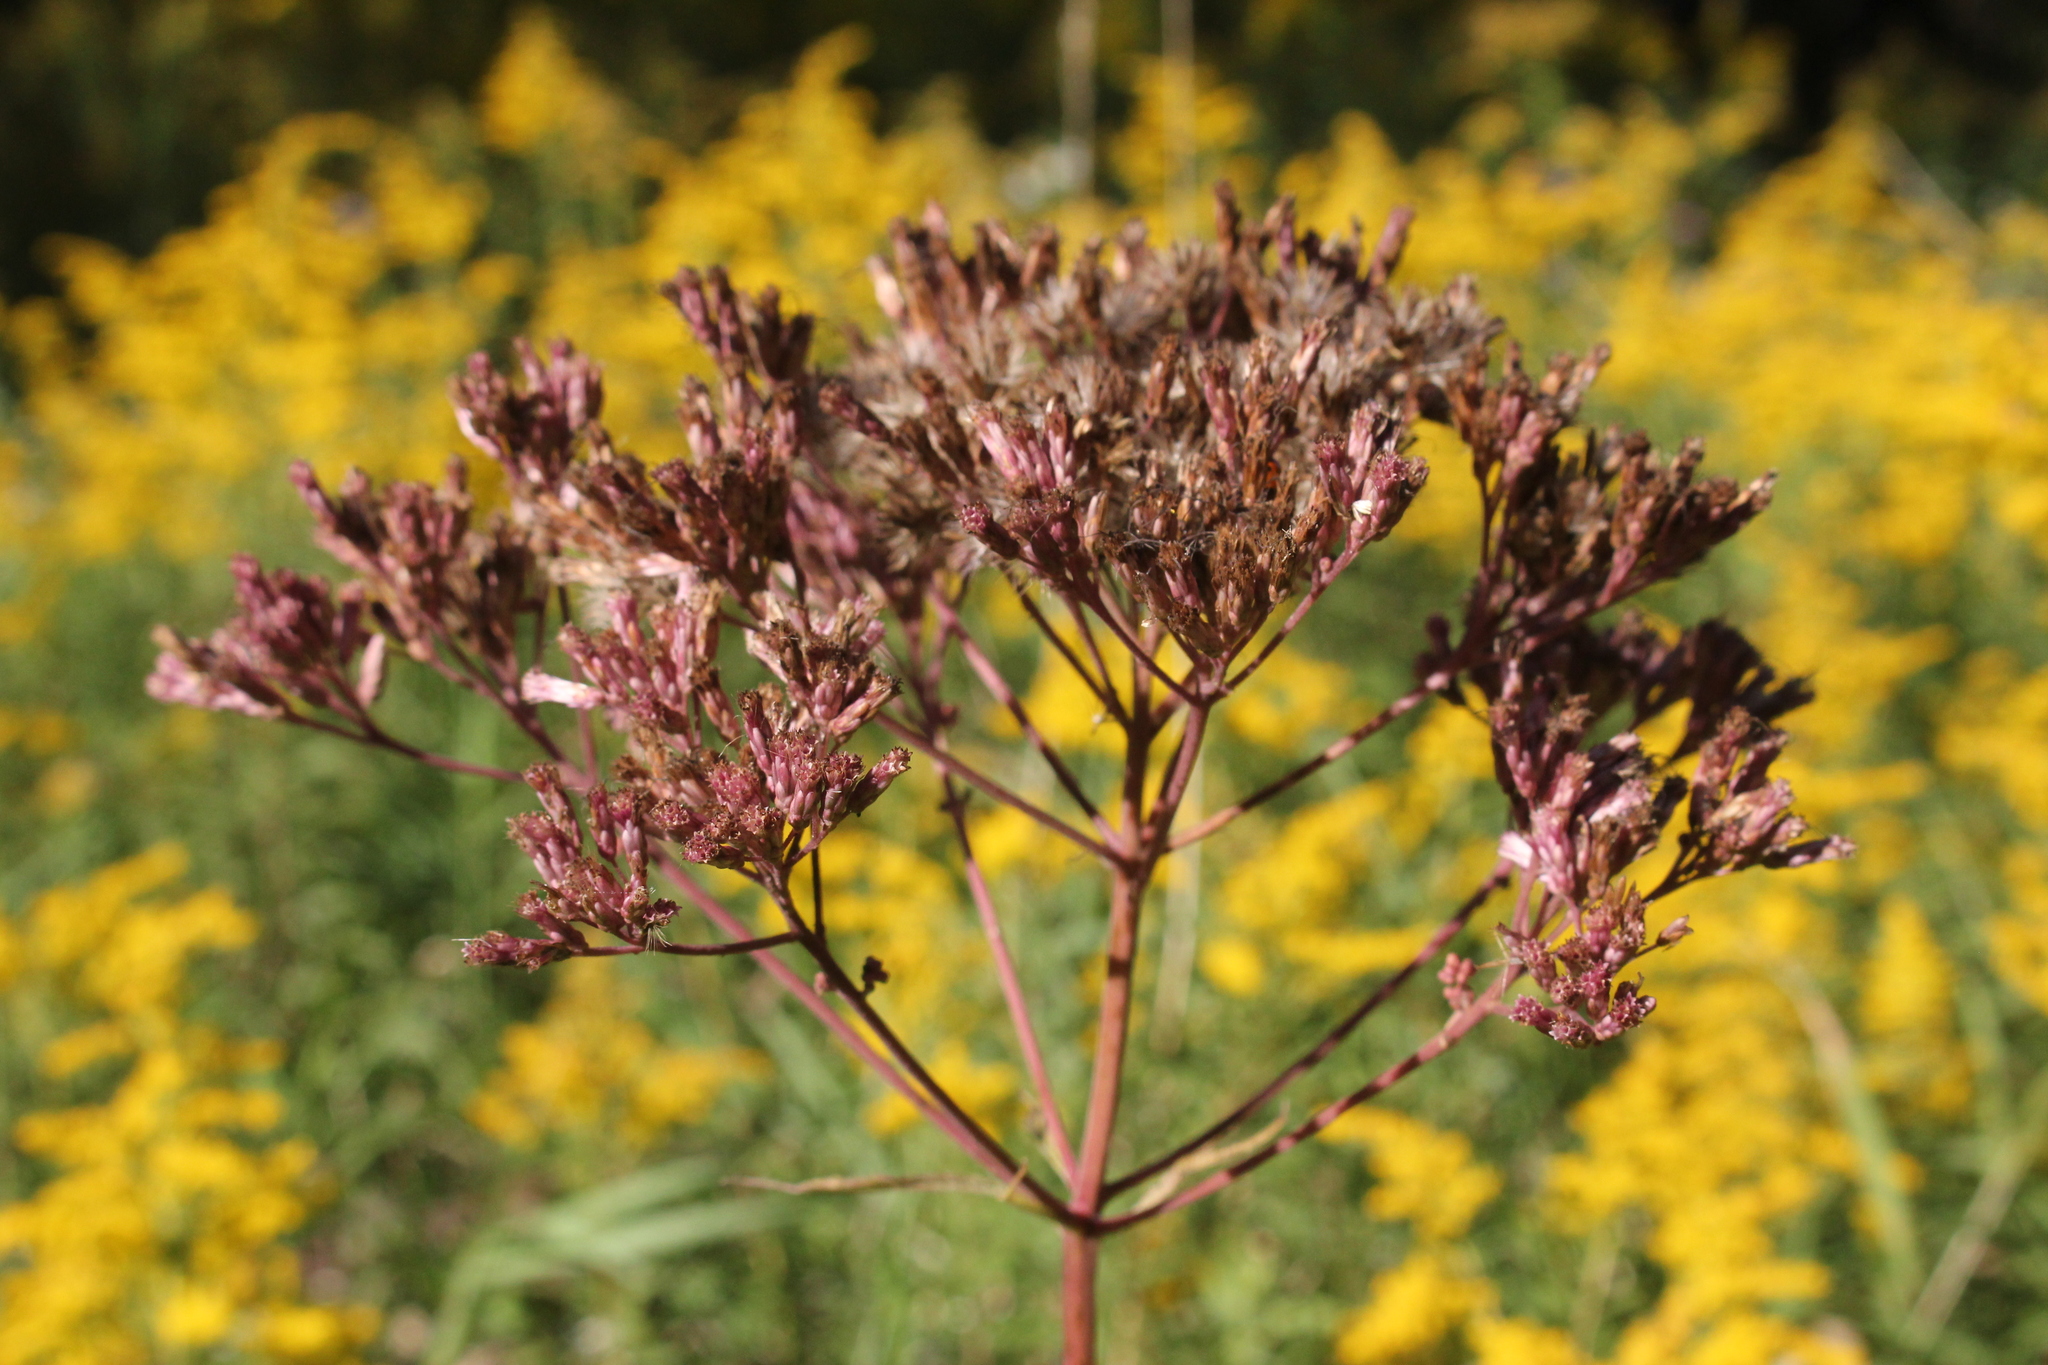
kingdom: Plantae
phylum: Tracheophyta
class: Magnoliopsida
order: Asterales
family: Asteraceae
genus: Eutrochium
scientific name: Eutrochium maculatum
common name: Spotted joe pye weed
